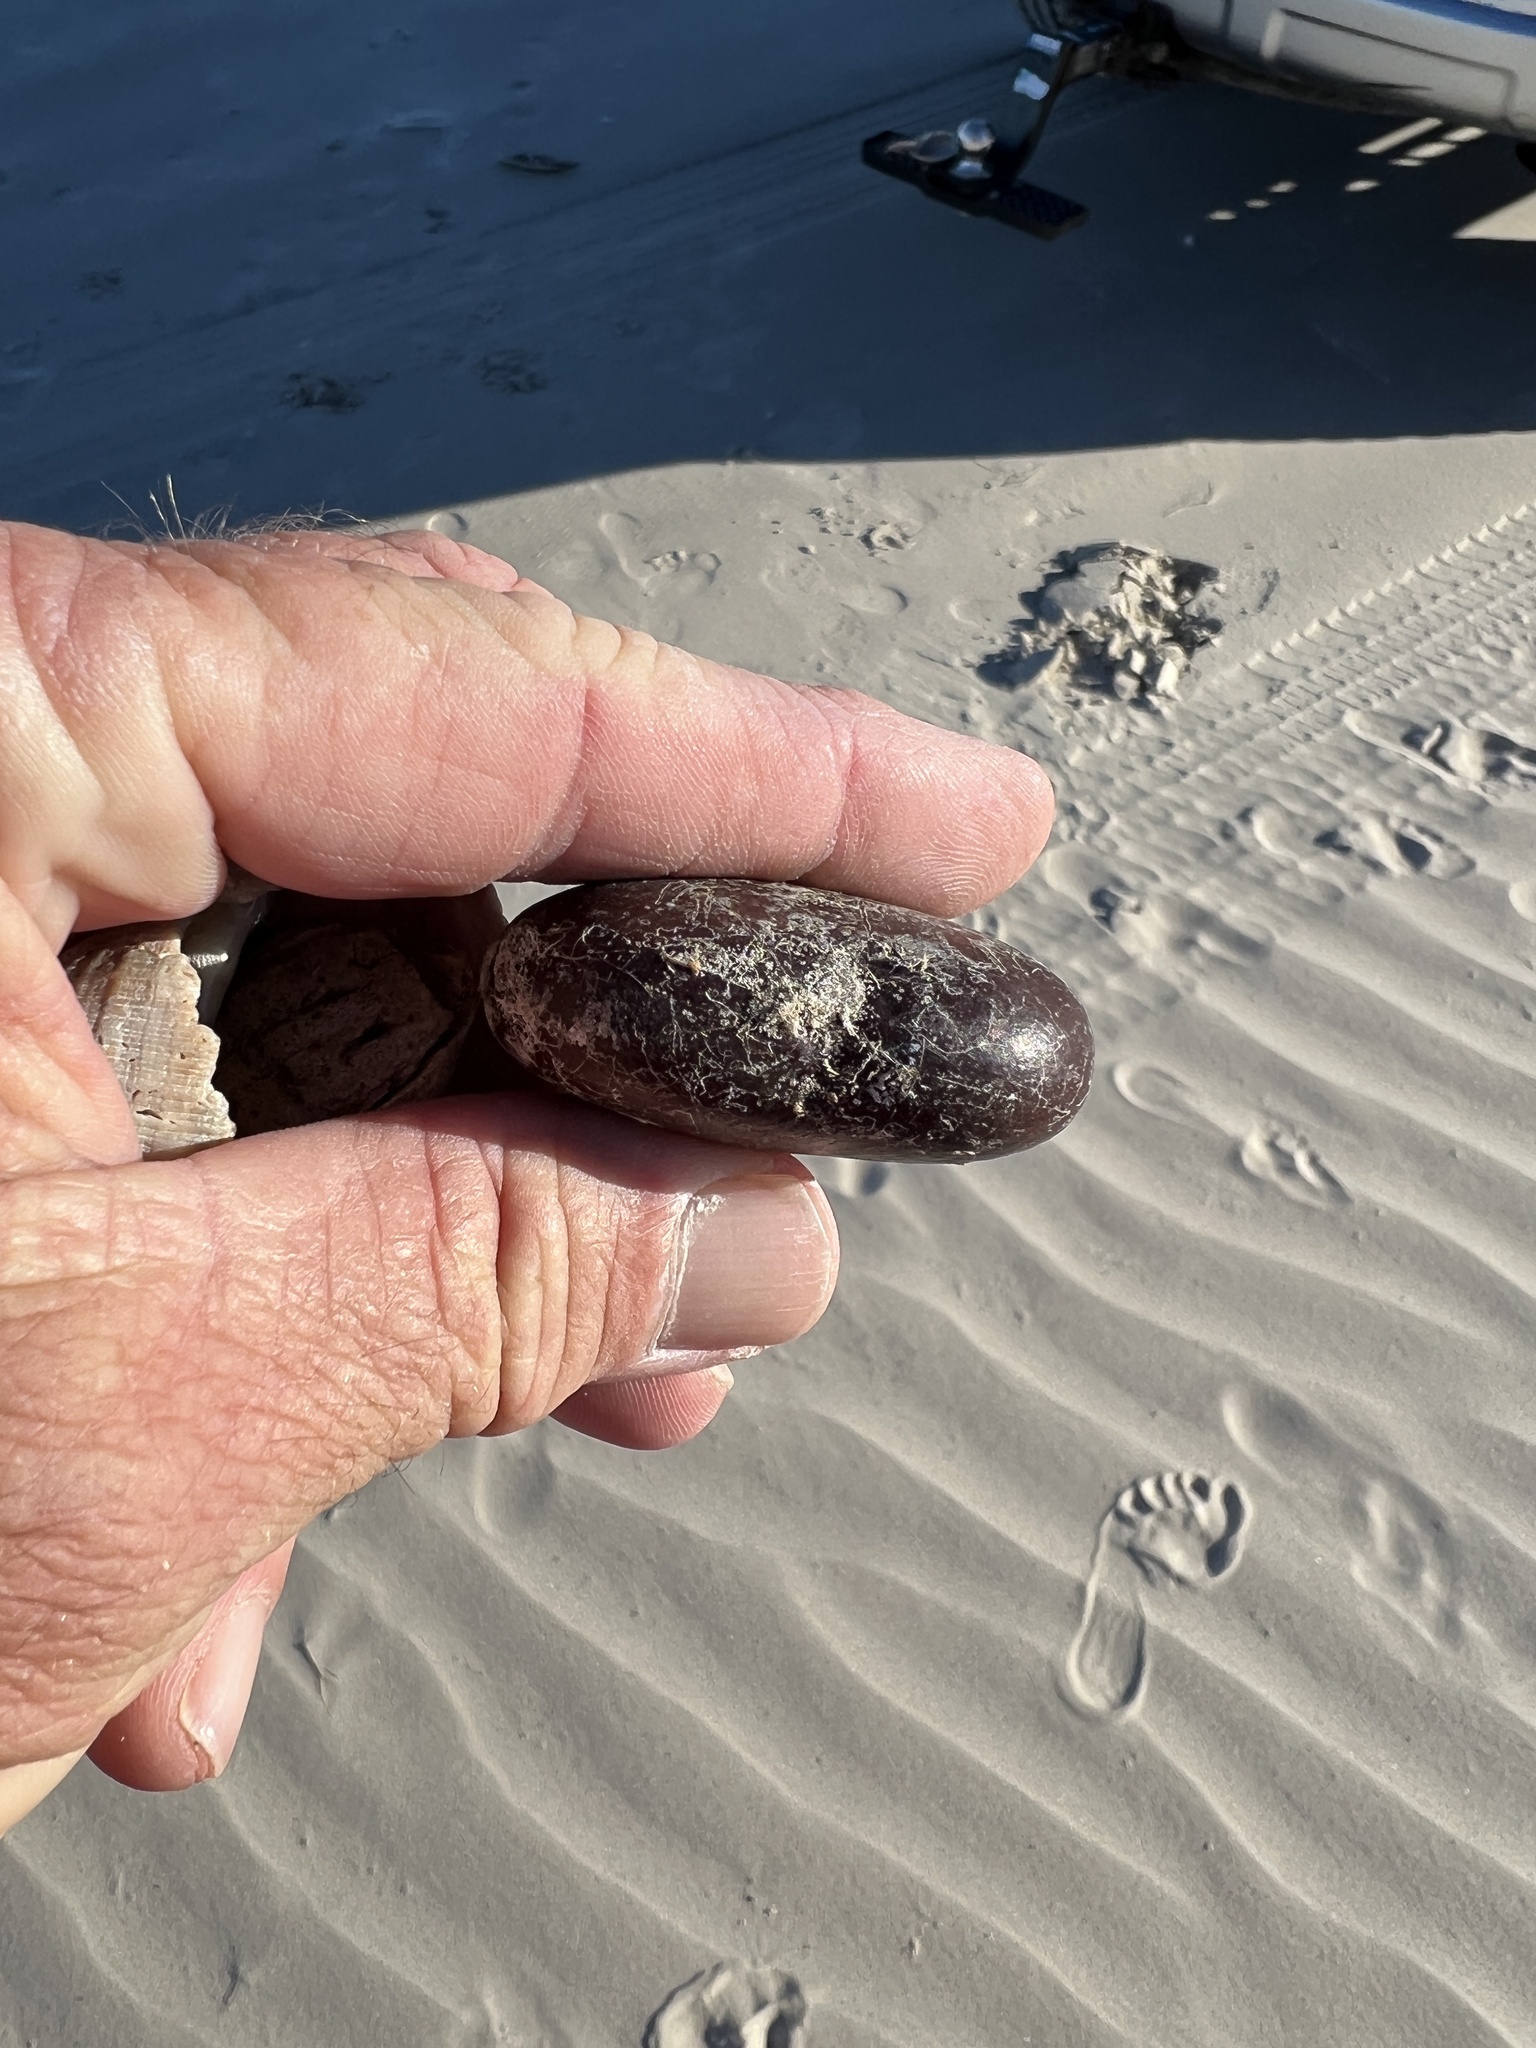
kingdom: Plantae
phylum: Tracheophyta
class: Magnoliopsida
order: Fabales
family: Fabaceae
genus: Entada
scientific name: Entada gigas
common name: Nicker-bean
